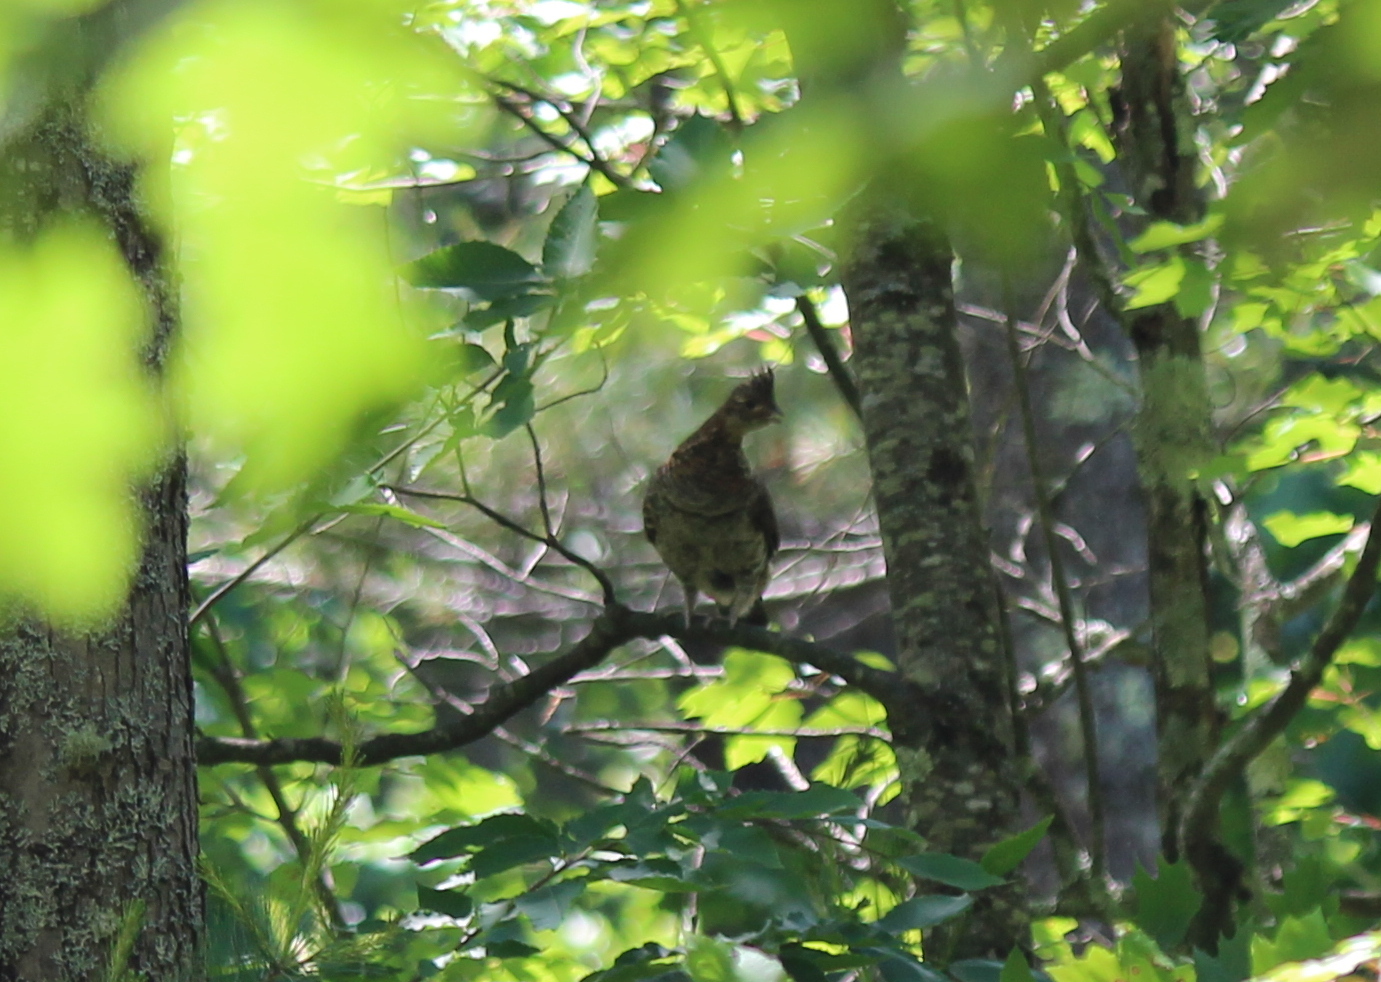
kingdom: Animalia
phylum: Chordata
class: Aves
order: Galliformes
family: Phasianidae
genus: Bonasa
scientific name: Bonasa umbellus
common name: Ruffed grouse
